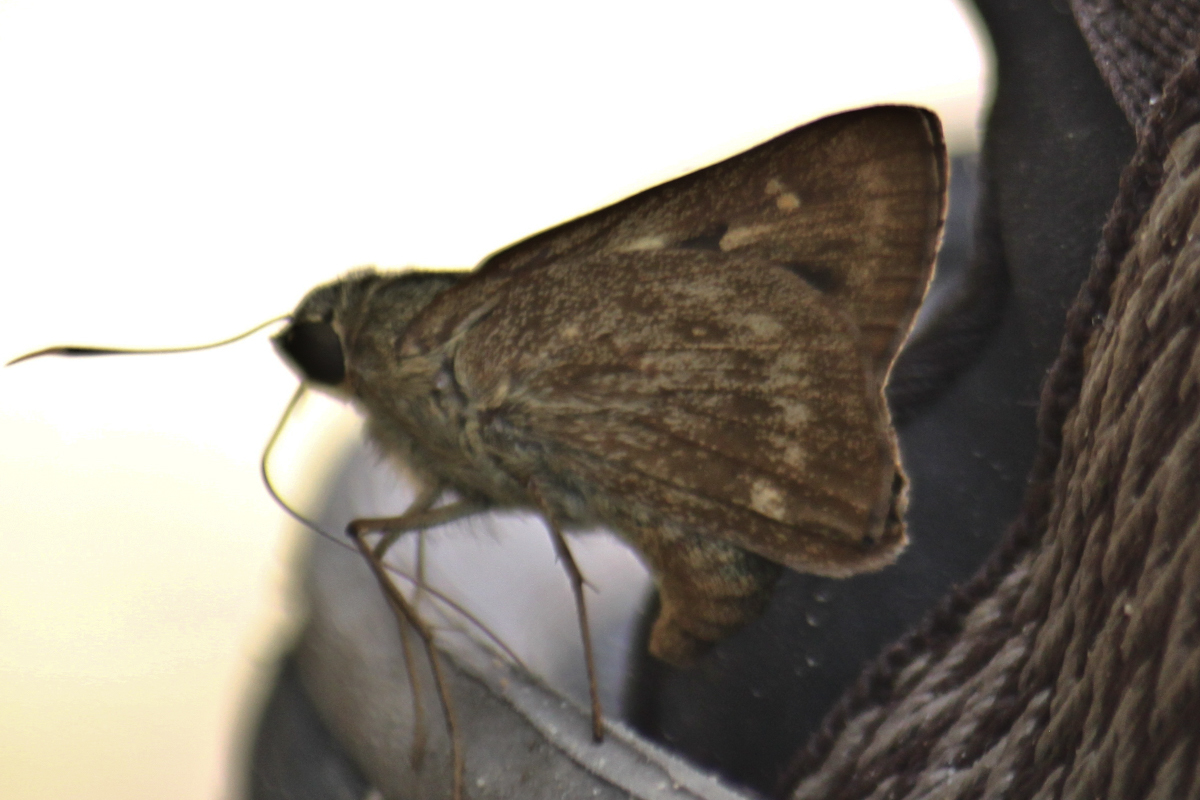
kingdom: Animalia
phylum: Arthropoda
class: Insecta
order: Lepidoptera
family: Hesperiidae
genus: Pithauria
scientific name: Pithauria stramineipennis
